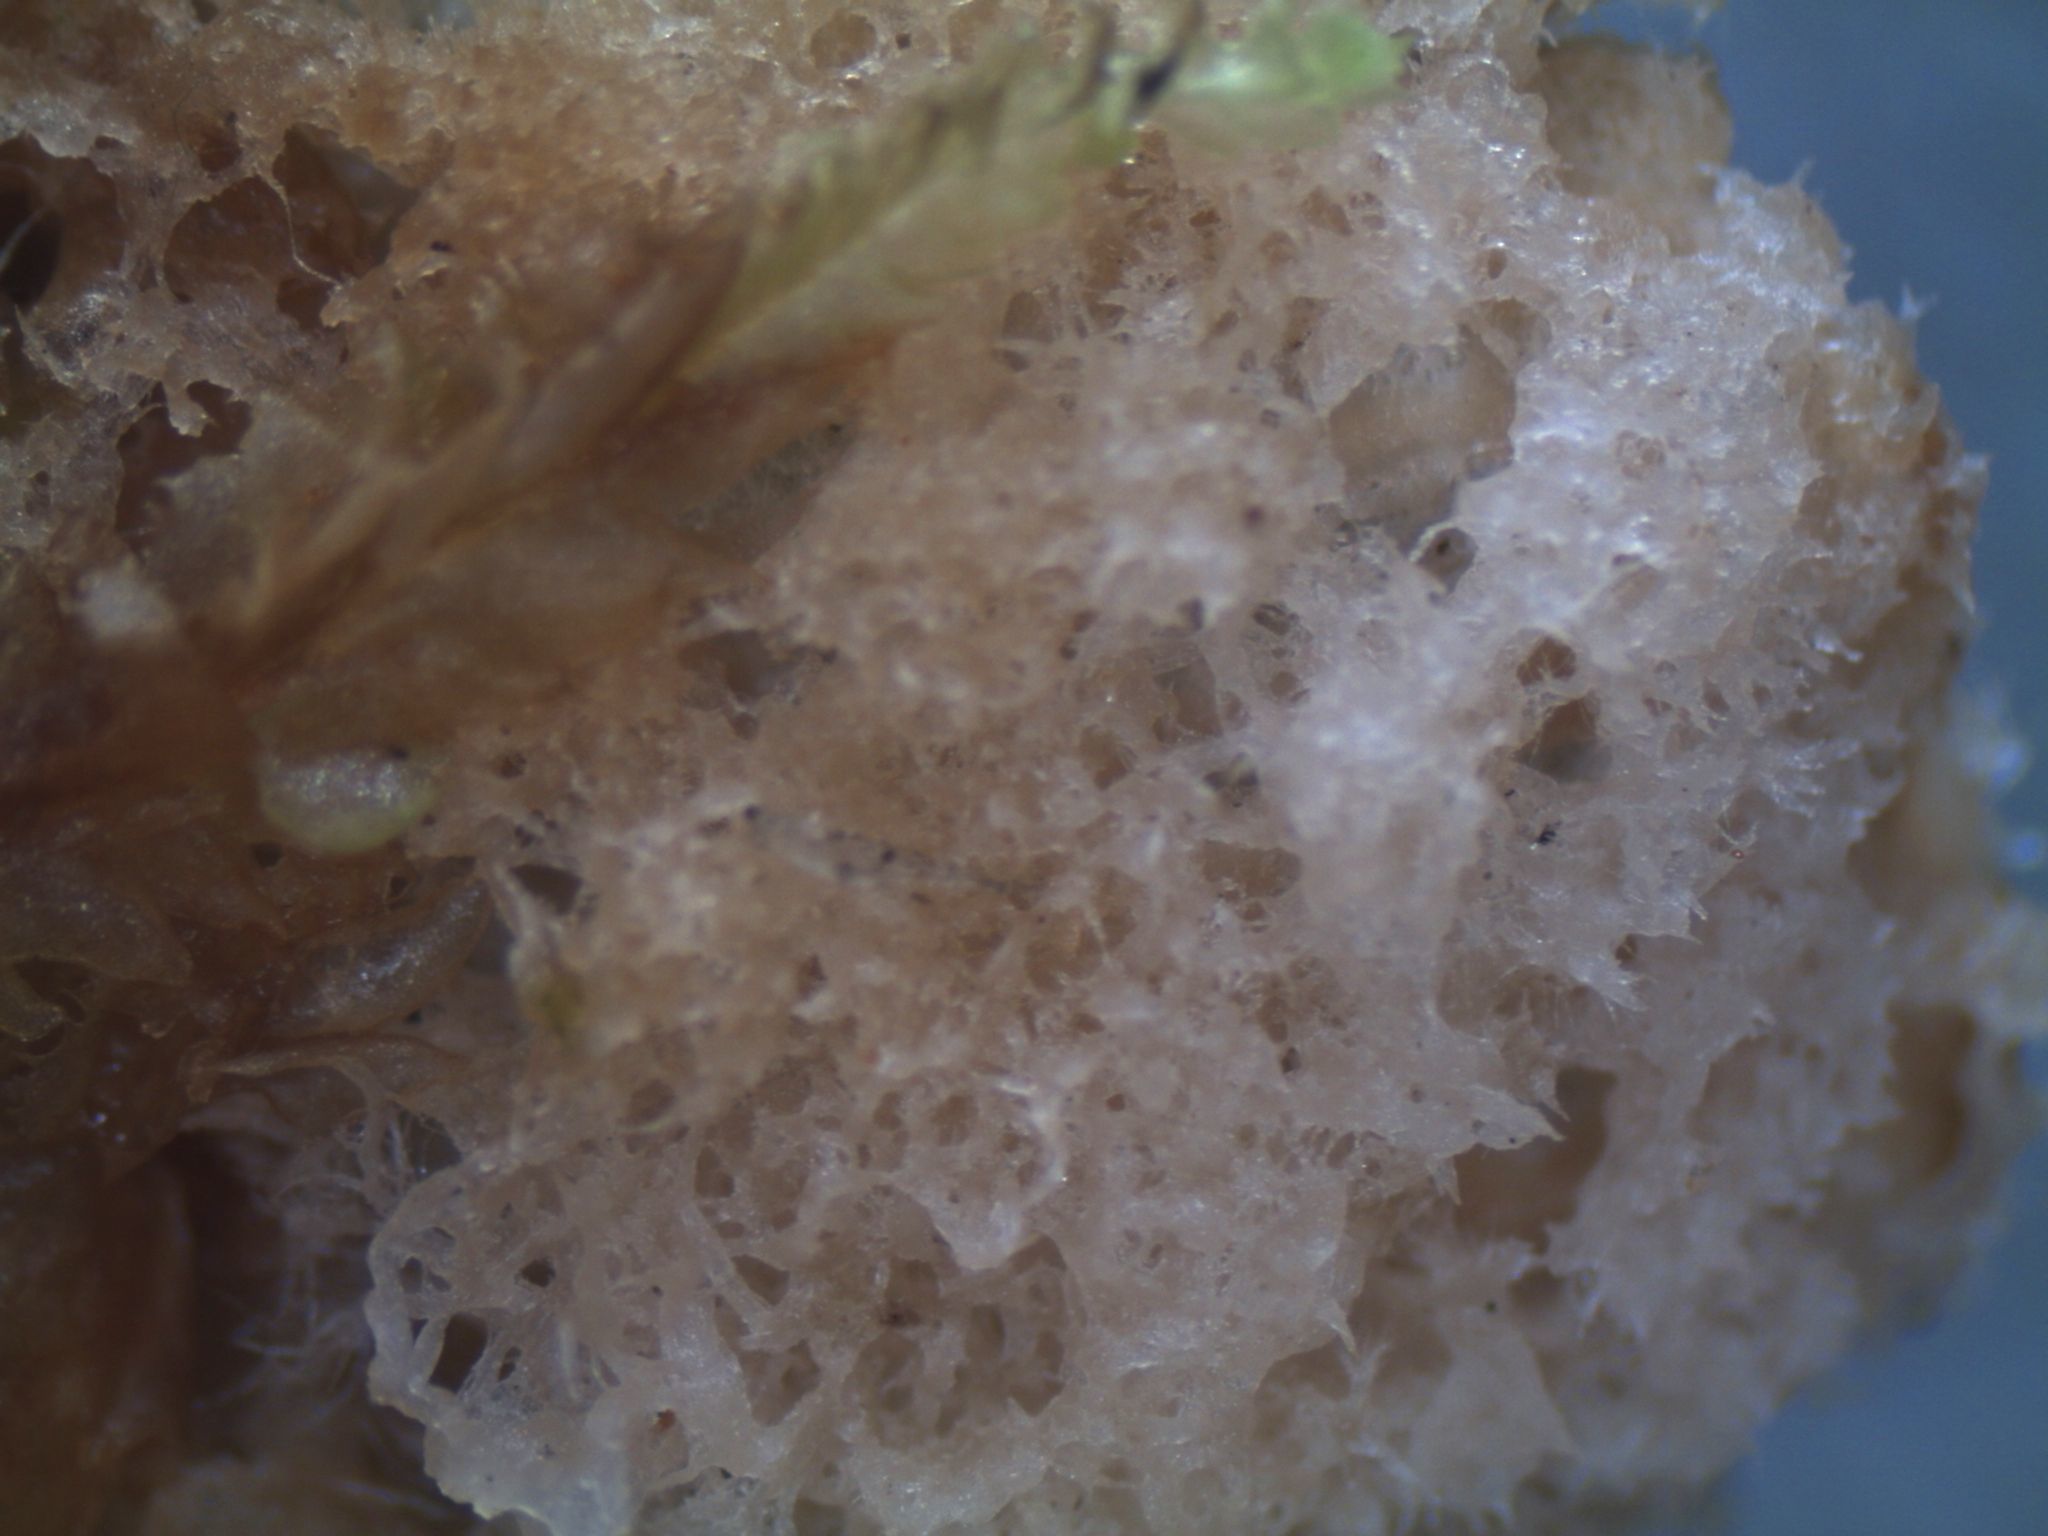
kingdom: Fungi
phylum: Ascomycota
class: Lecanoromycetes
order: Peltigerales
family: Peltigeraceae
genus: Peltigera
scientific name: Peltigera ulcerata
